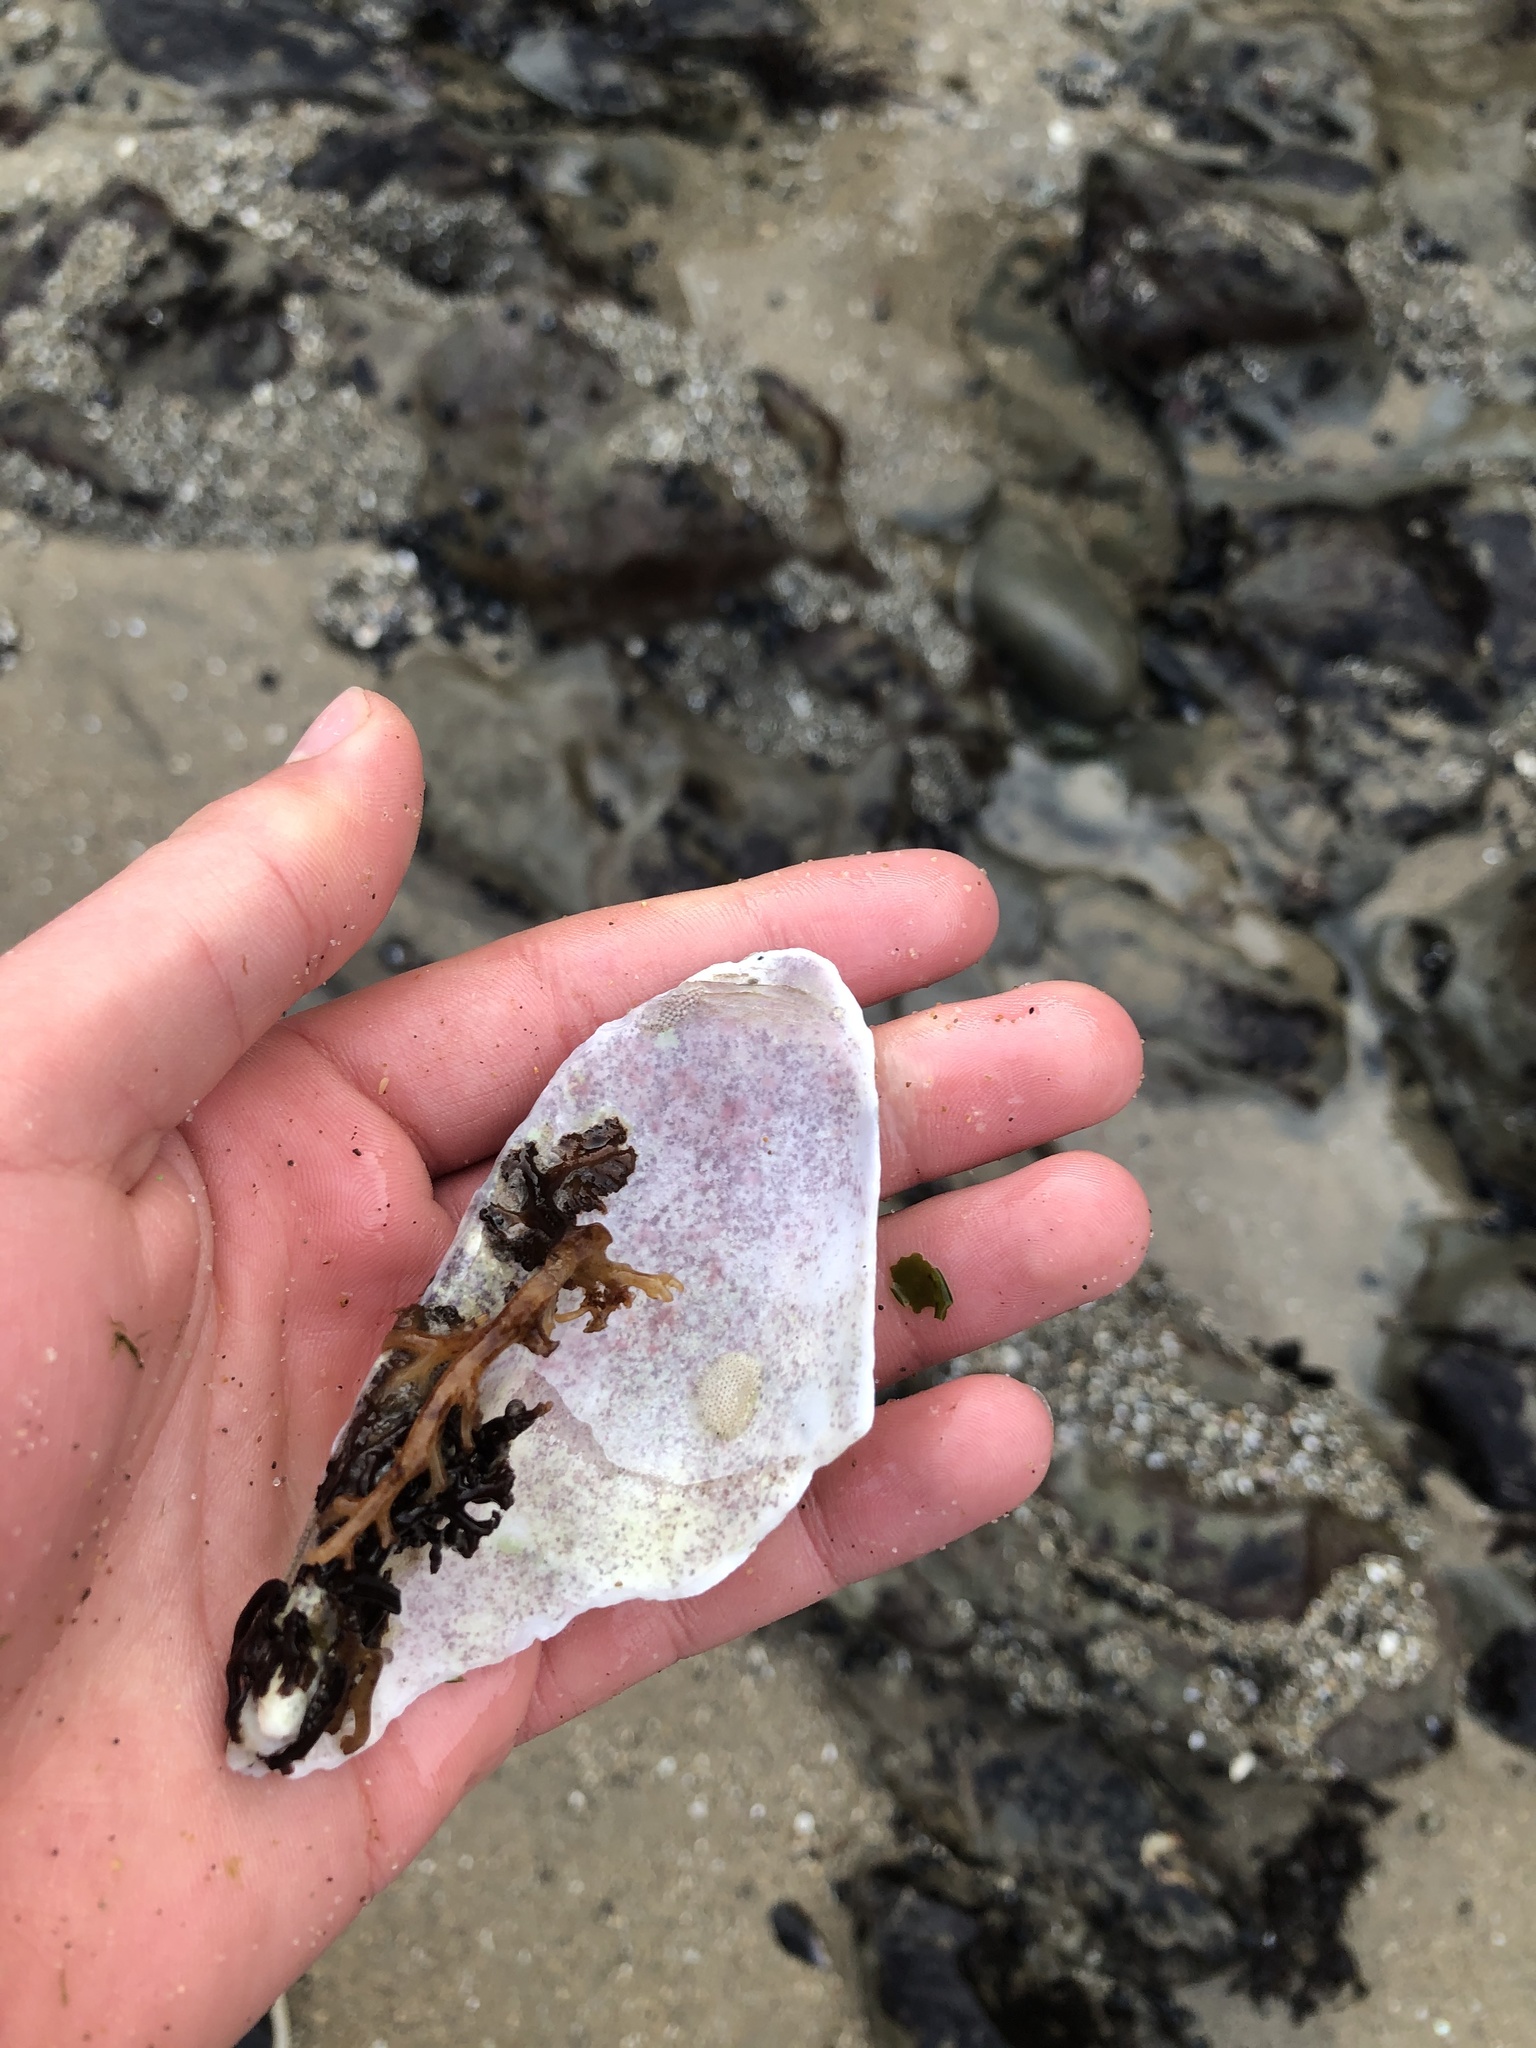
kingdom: Animalia
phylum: Mollusca
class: Bivalvia
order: Myida
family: Pholadidae
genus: Parapholas
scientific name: Parapholas californica
